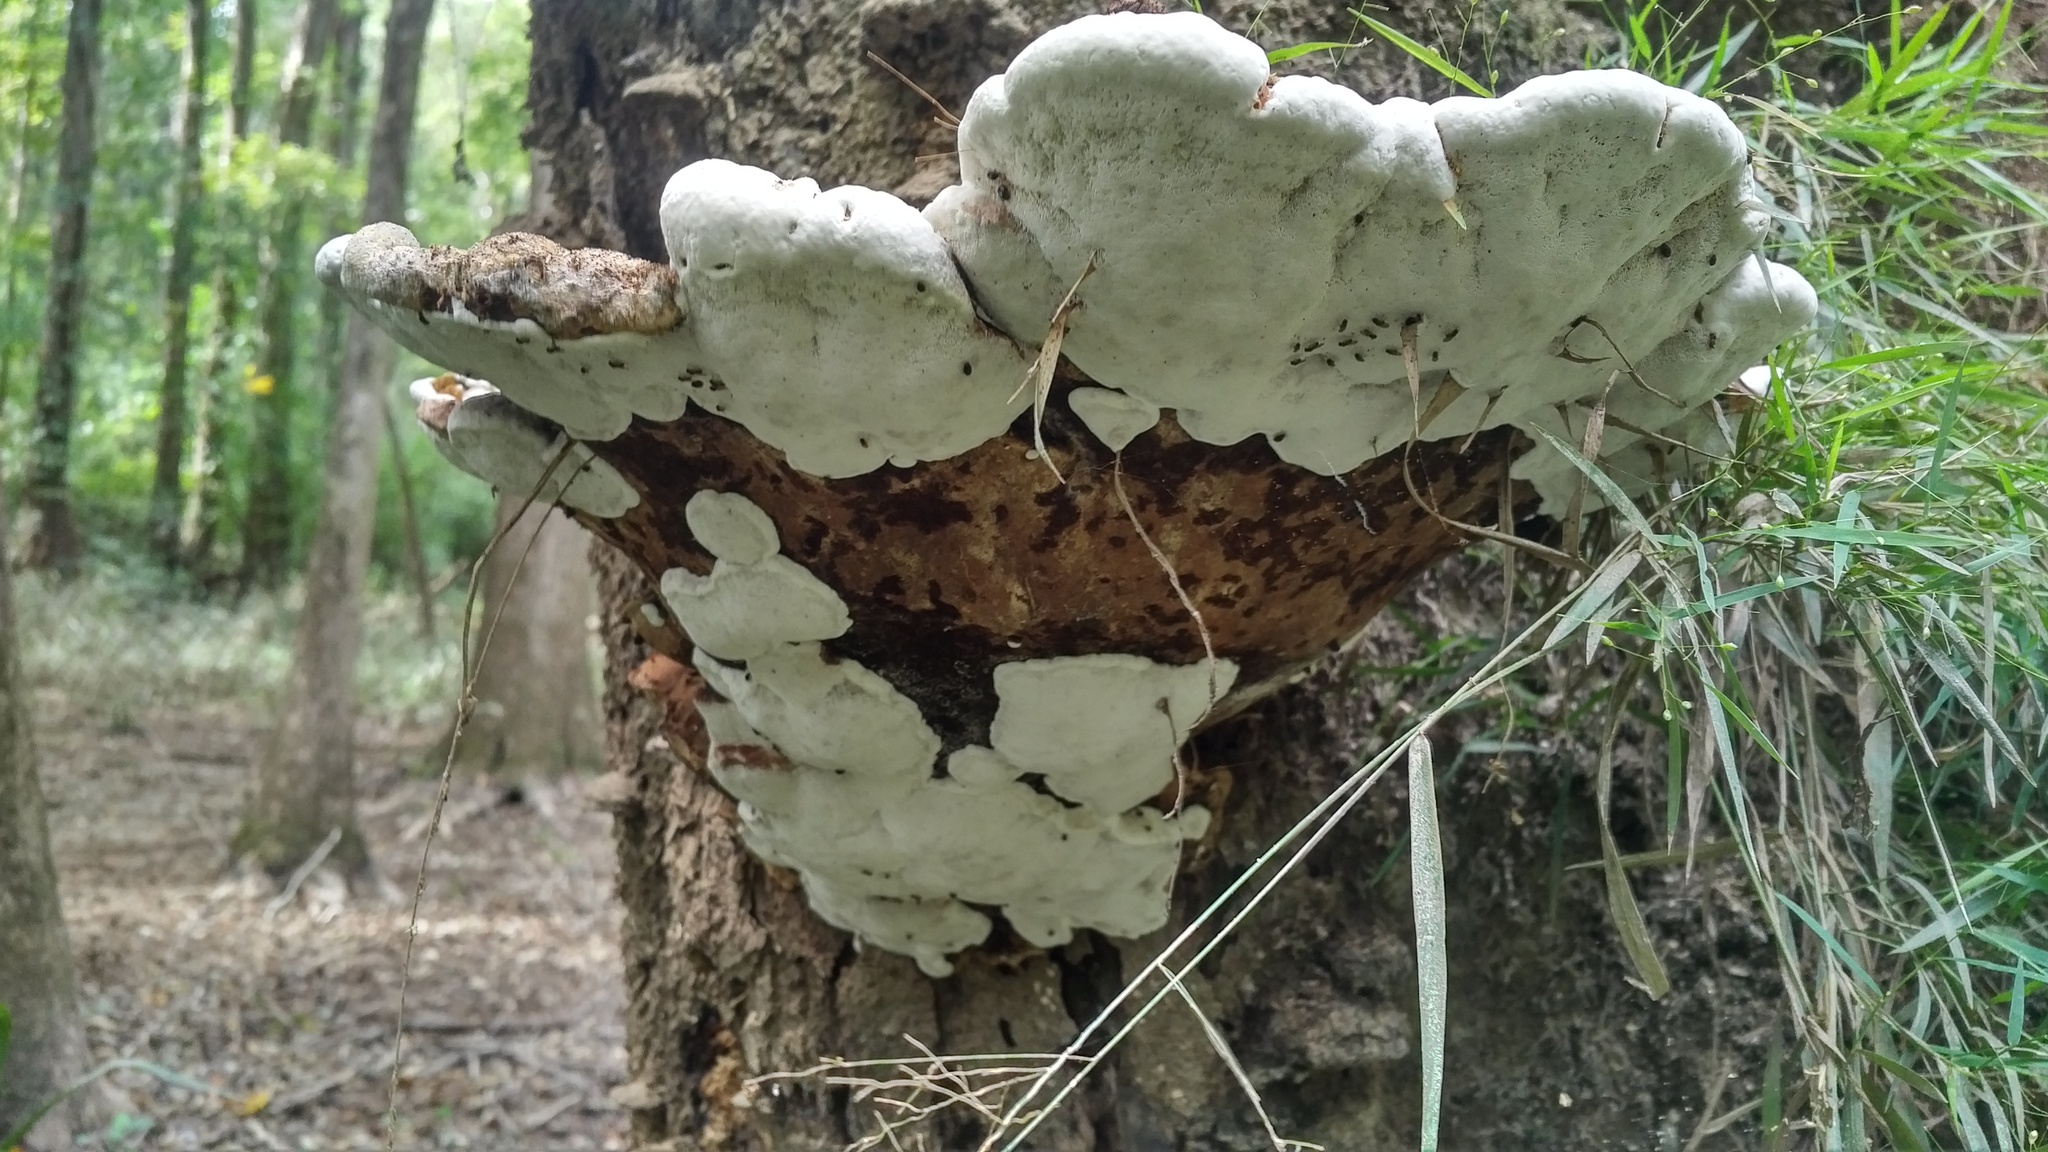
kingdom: Fungi
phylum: Basidiomycota
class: Agaricomycetes
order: Polyporales
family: Polyporaceae
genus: Ganoderma
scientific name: Ganoderma lobatum
